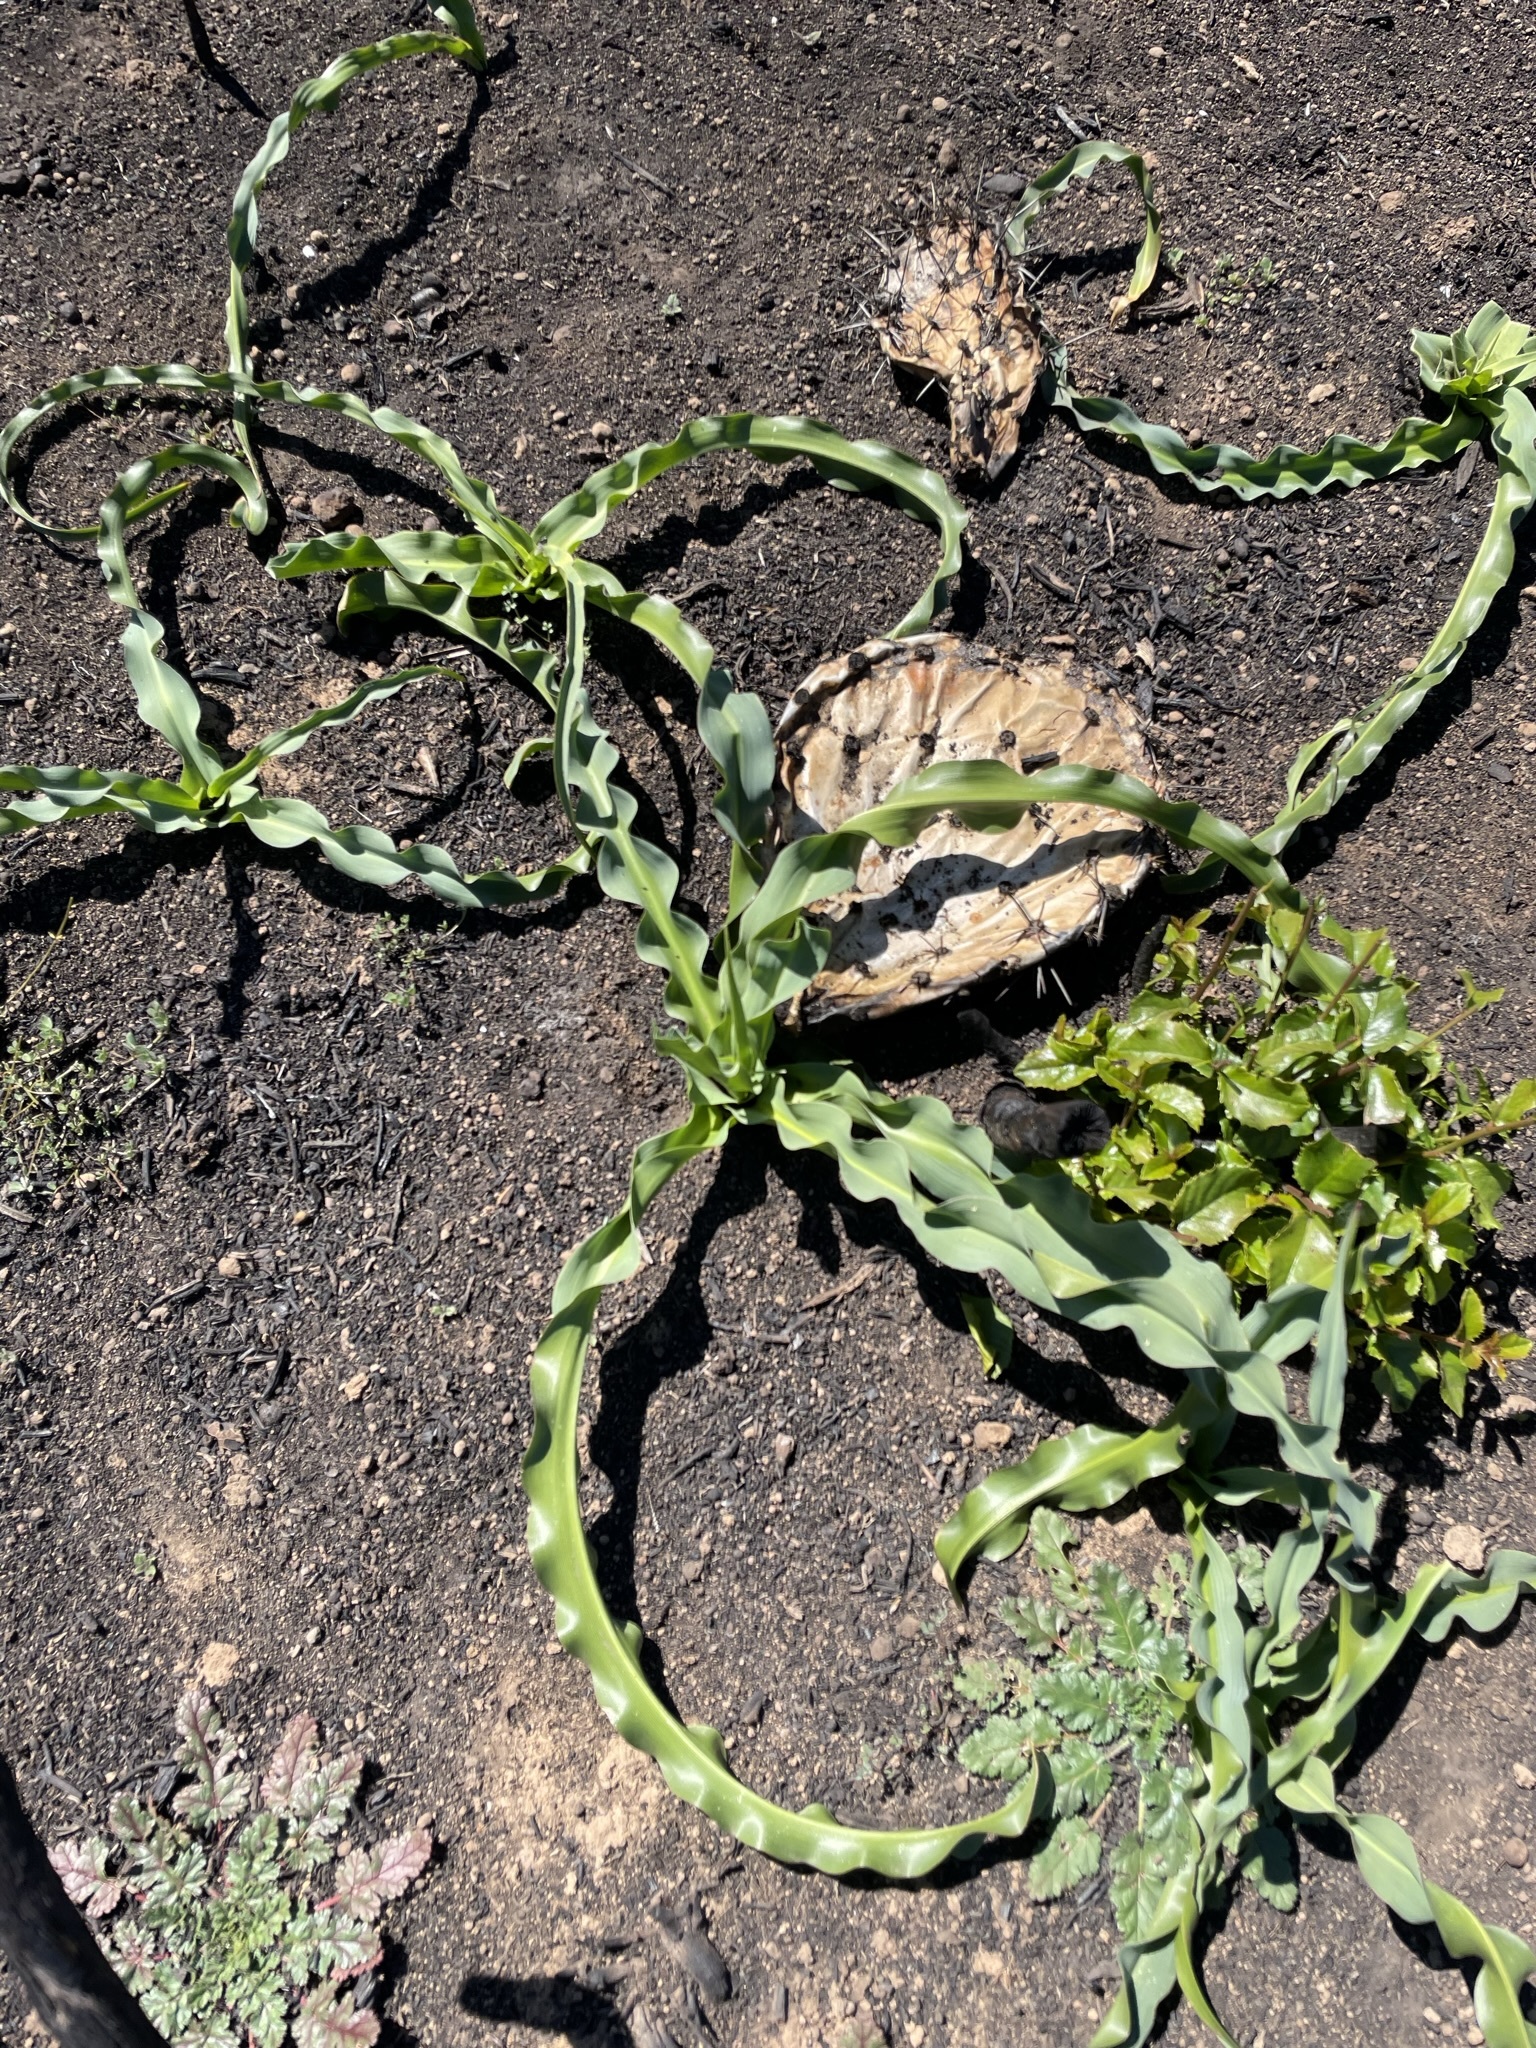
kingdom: Plantae
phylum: Tracheophyta
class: Liliopsida
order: Asparagales
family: Asparagaceae
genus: Chlorogalum
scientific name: Chlorogalum pomeridianum
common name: Amole
